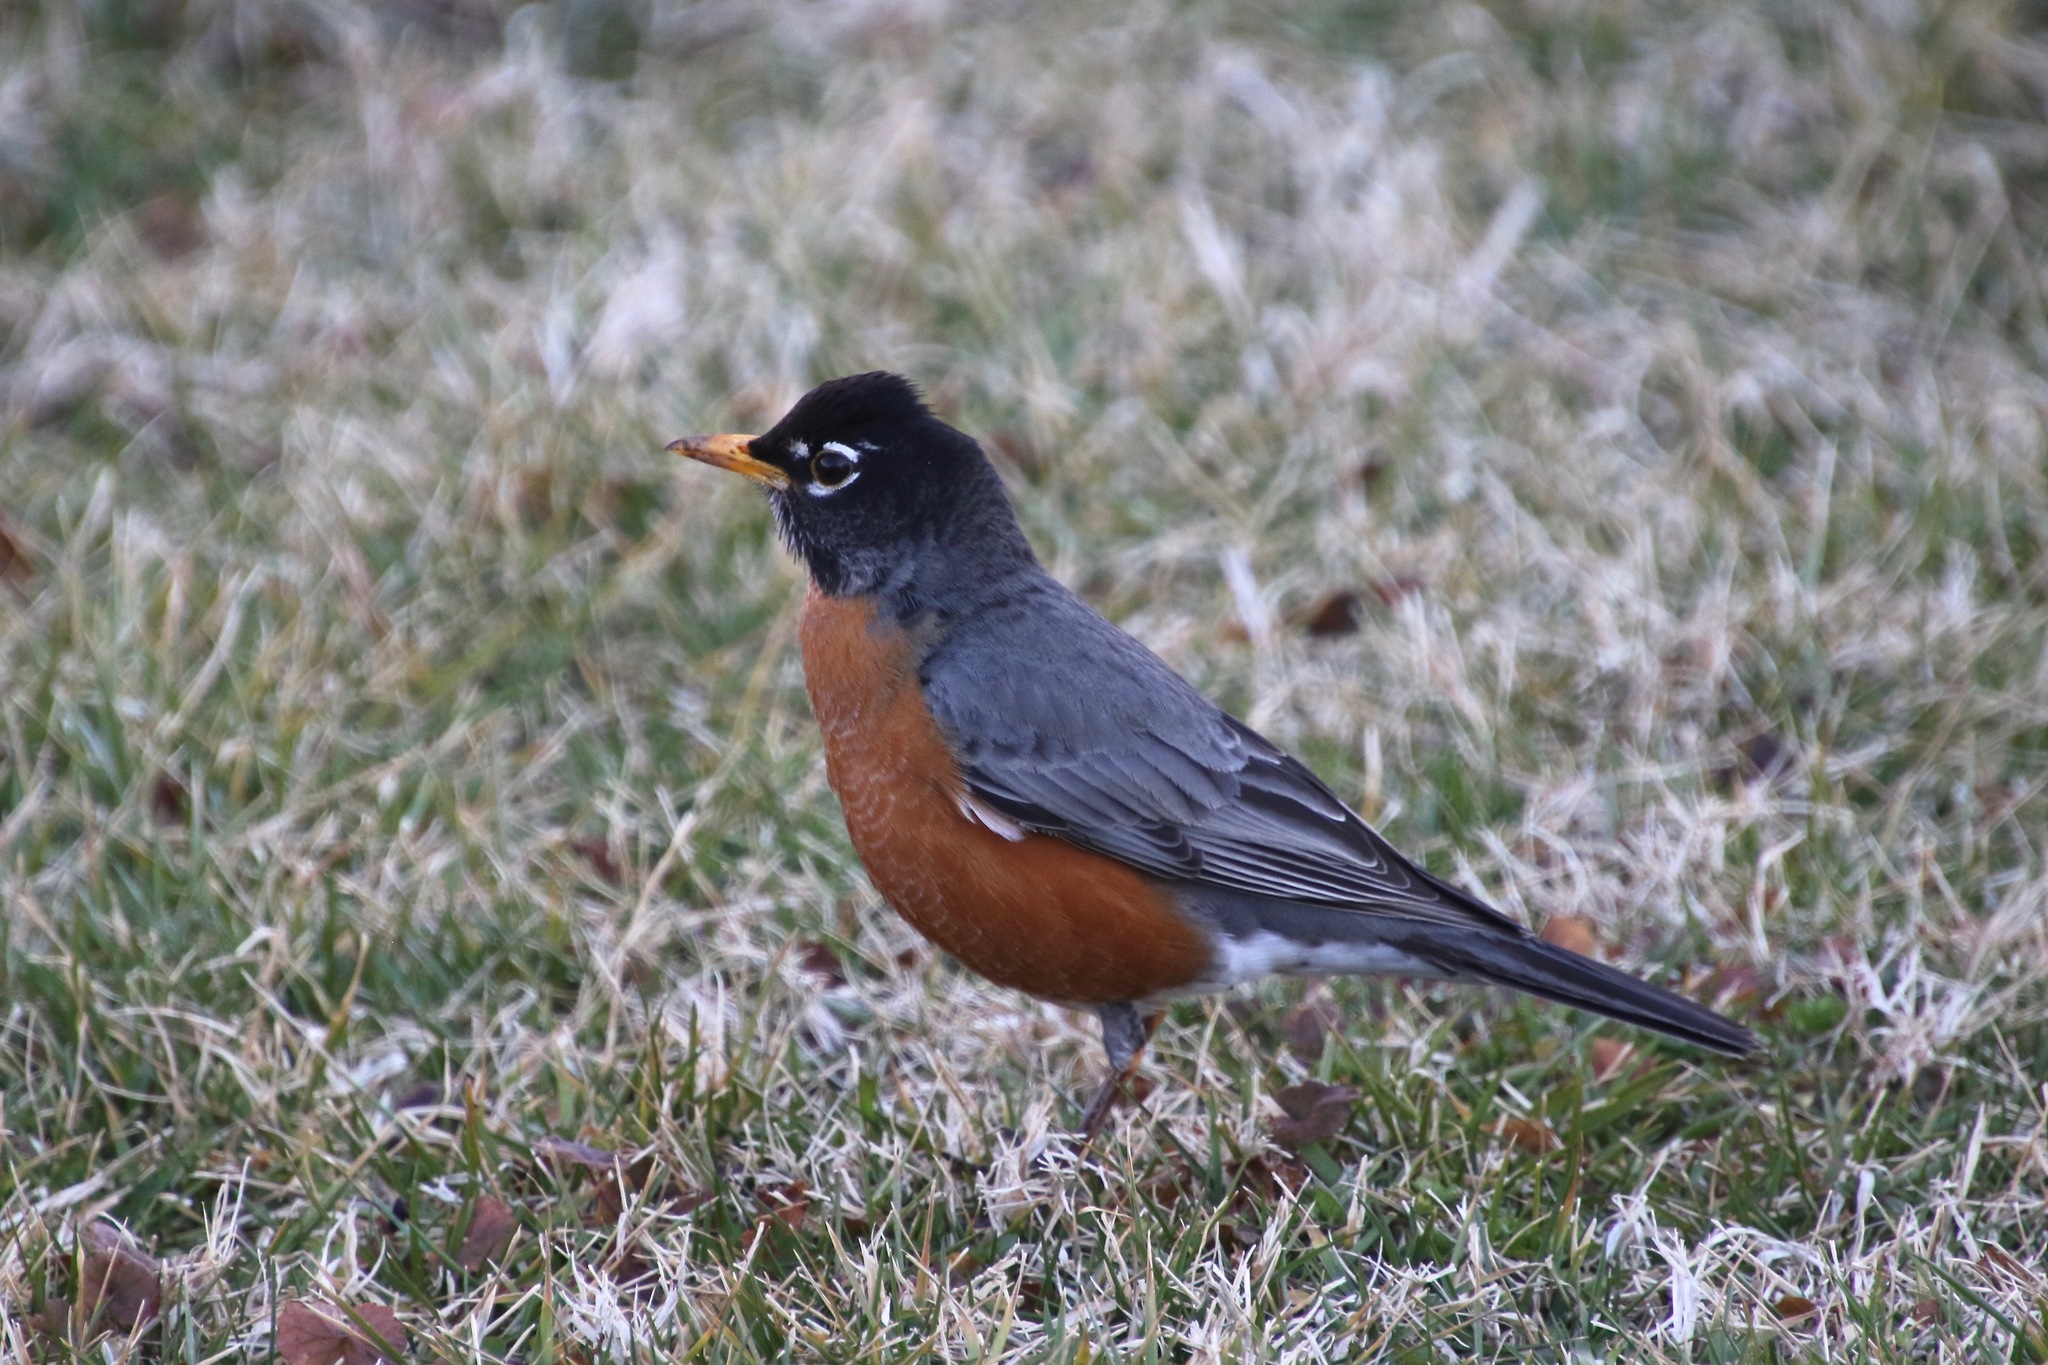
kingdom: Animalia
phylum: Chordata
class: Aves
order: Passeriformes
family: Turdidae
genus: Turdus
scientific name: Turdus migratorius
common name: American robin
